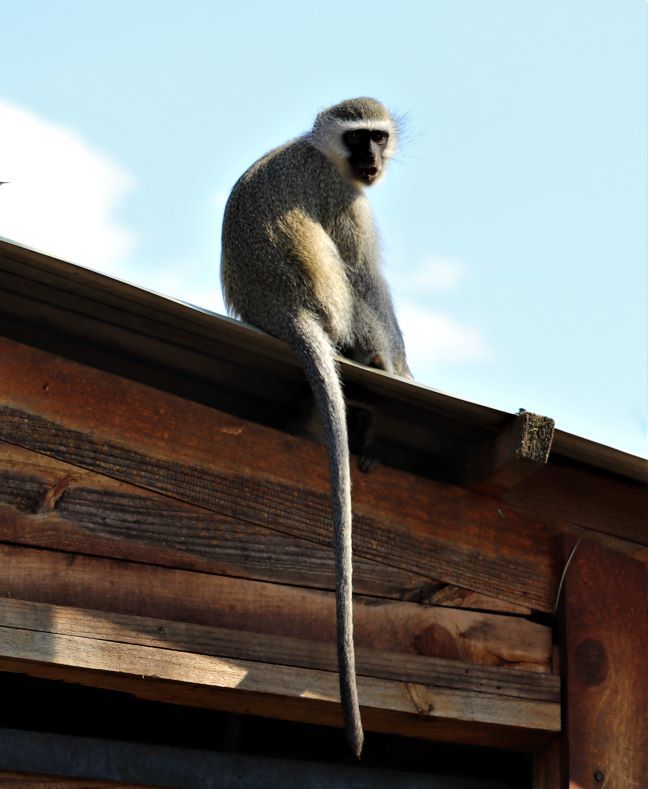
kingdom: Animalia
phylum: Chordata
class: Mammalia
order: Primates
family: Cercopithecidae
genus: Chlorocebus
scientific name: Chlorocebus pygerythrus
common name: Vervet monkey
